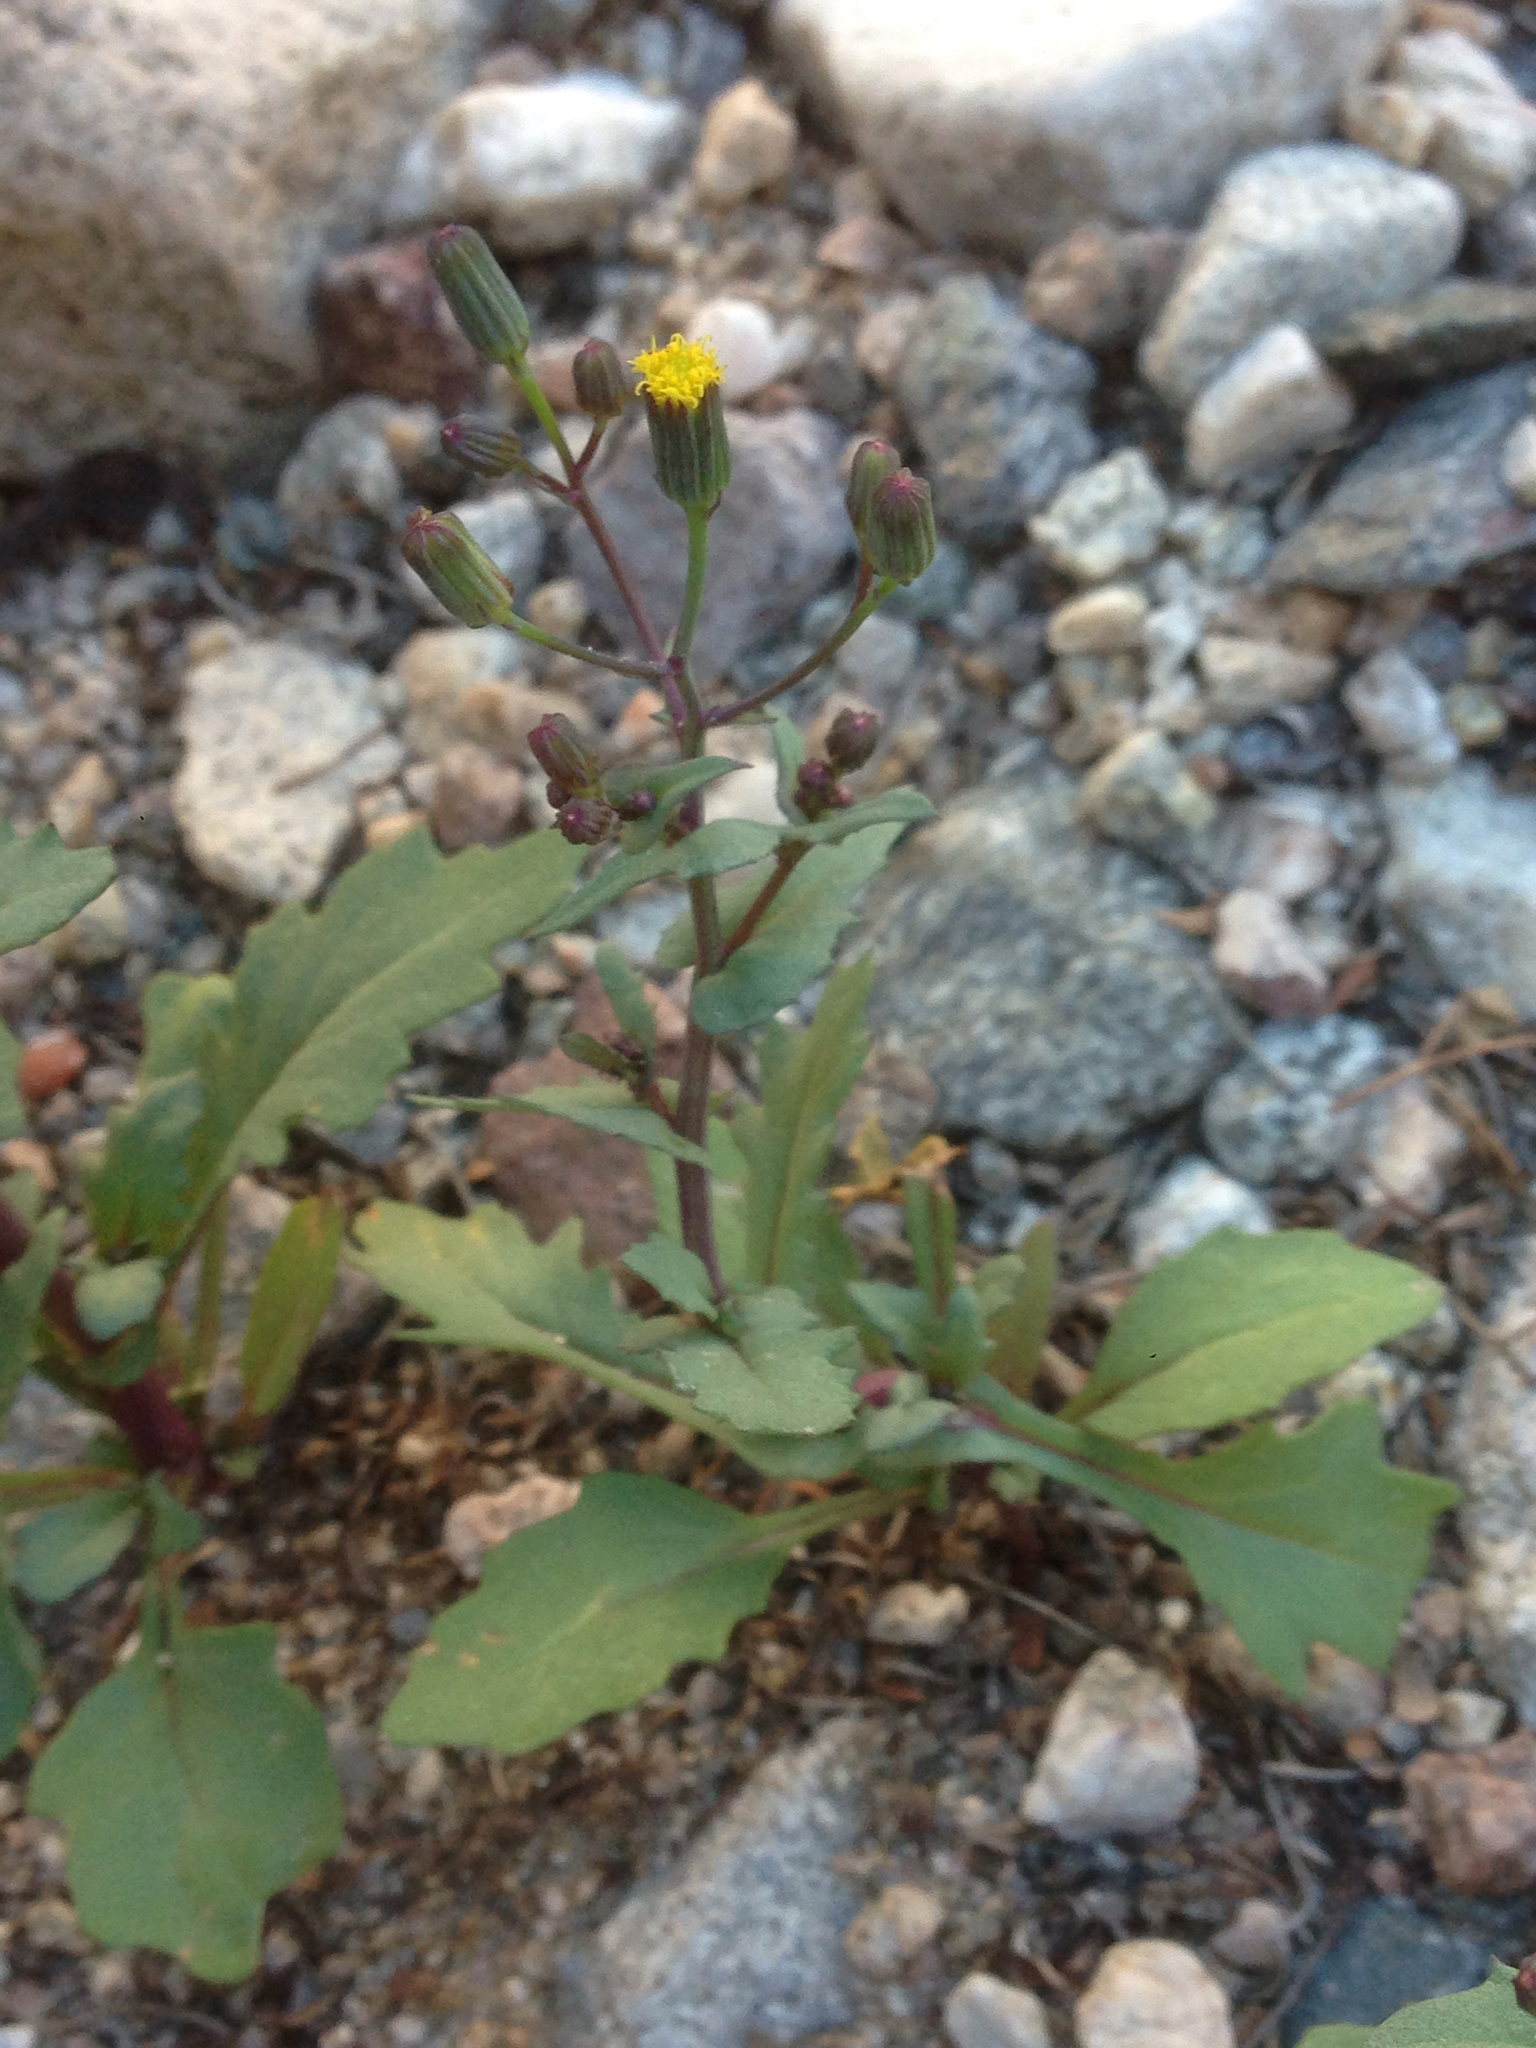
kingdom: Plantae
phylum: Tracheophyta
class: Magnoliopsida
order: Asterales
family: Asteraceae
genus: Senecio
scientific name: Senecio mohavensis
